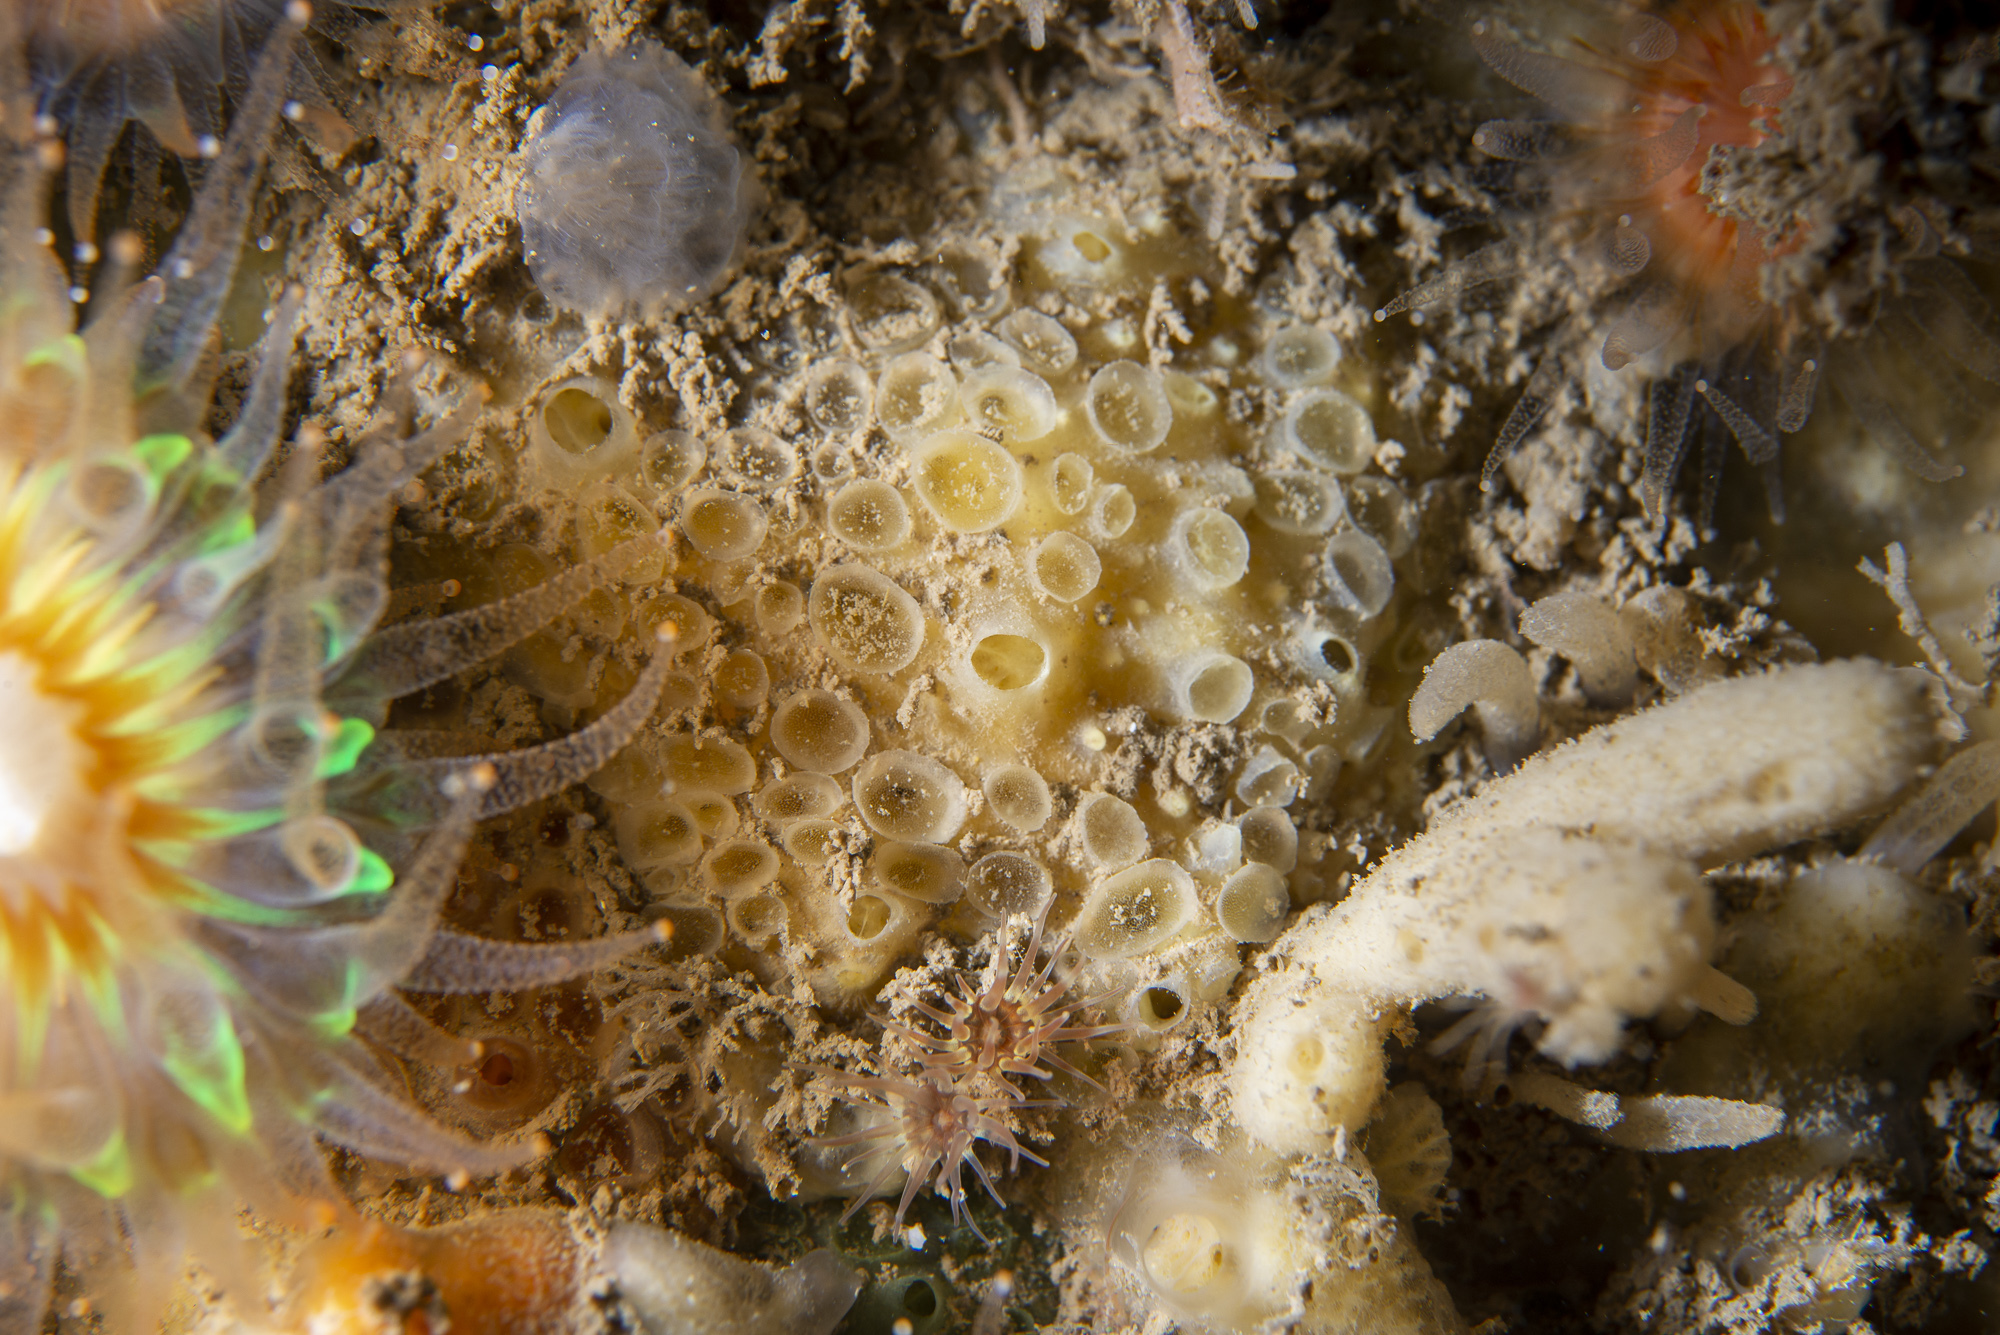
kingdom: Animalia
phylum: Porifera
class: Demospongiae
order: Poecilosclerida
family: Coelosphaeridae
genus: Lissodendoryx
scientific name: Lissodendoryx jenjonesae
